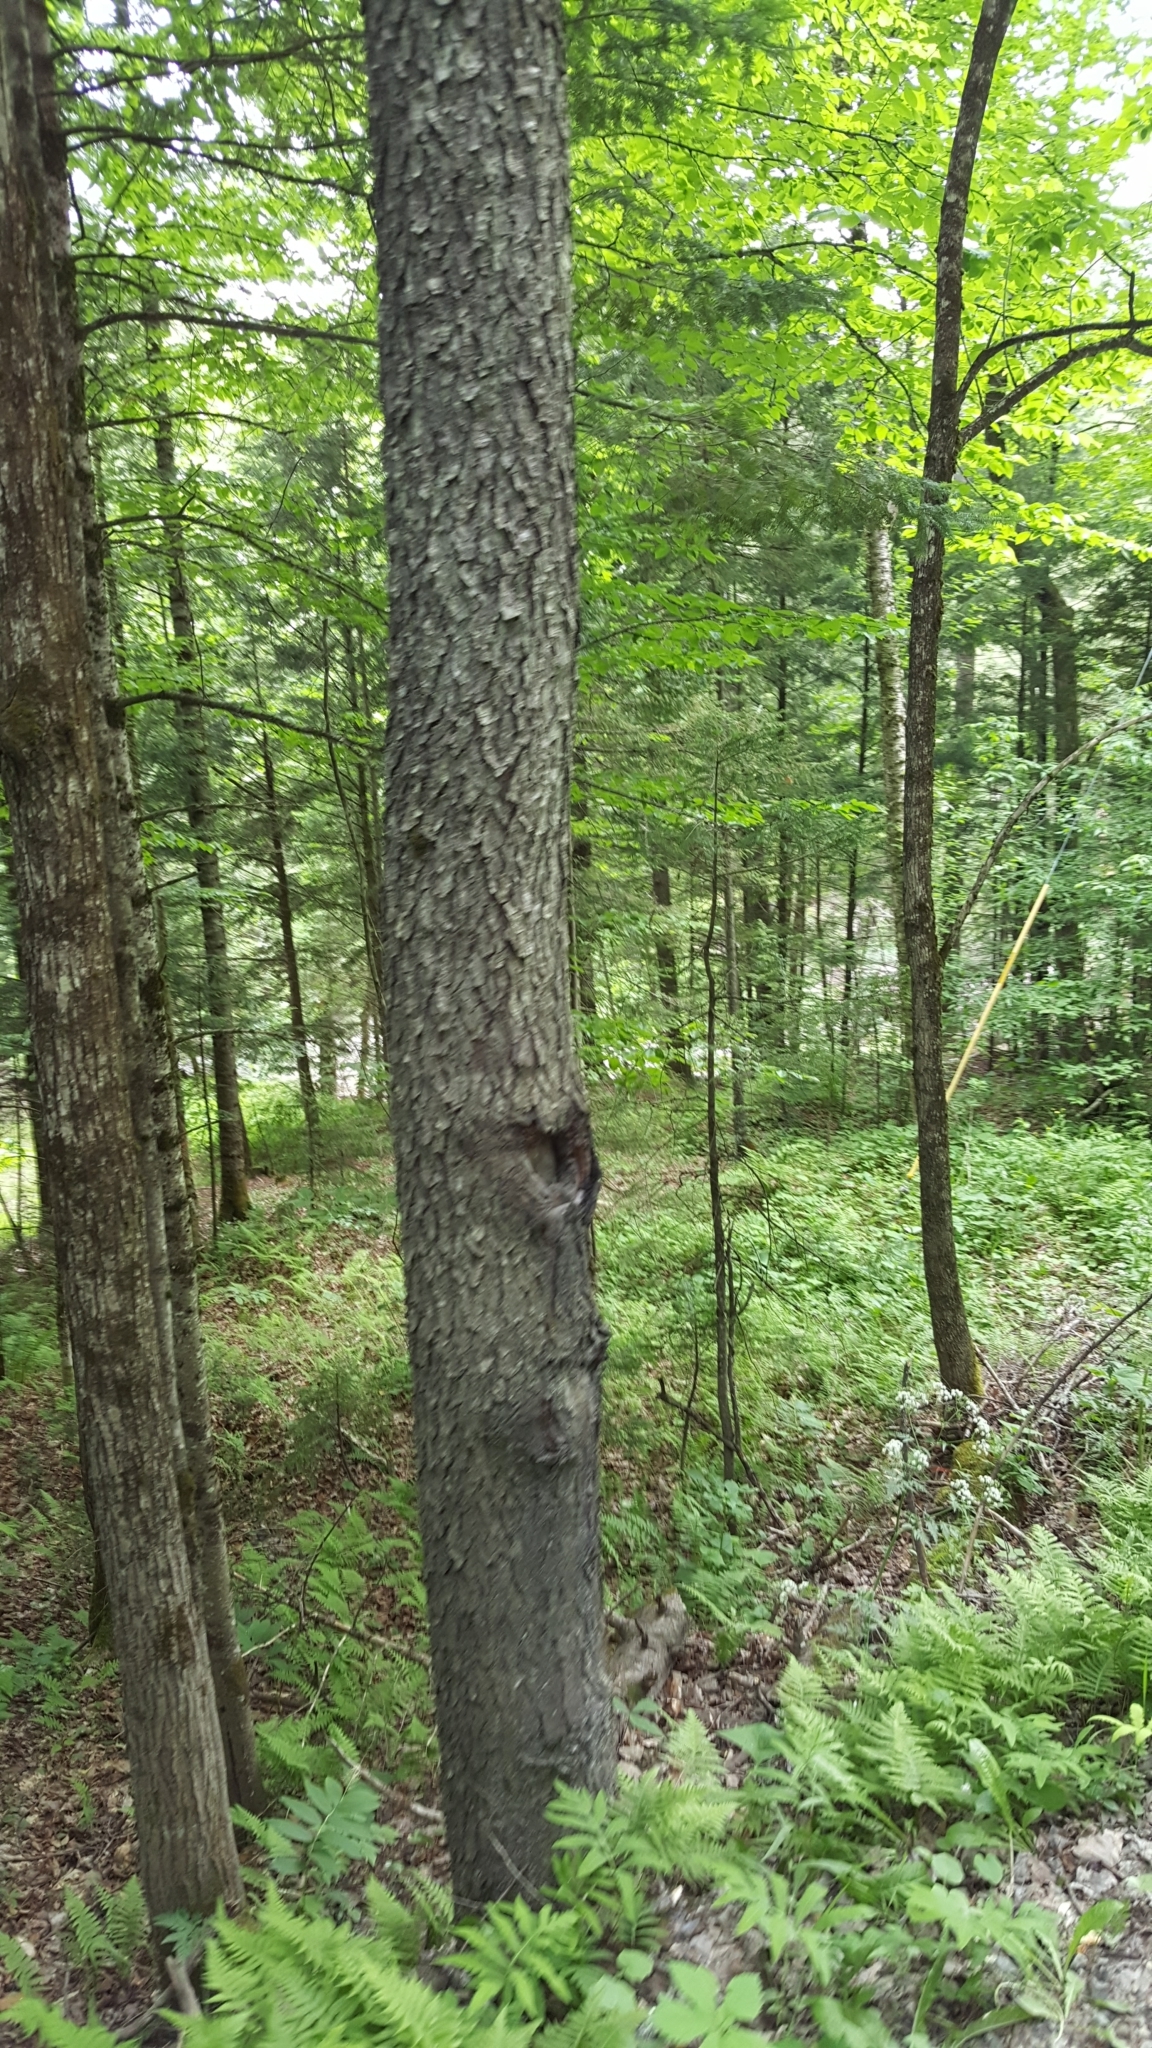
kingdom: Plantae
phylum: Tracheophyta
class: Magnoliopsida
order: Rosales
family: Rosaceae
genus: Prunus
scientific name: Prunus serotina
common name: Black cherry
